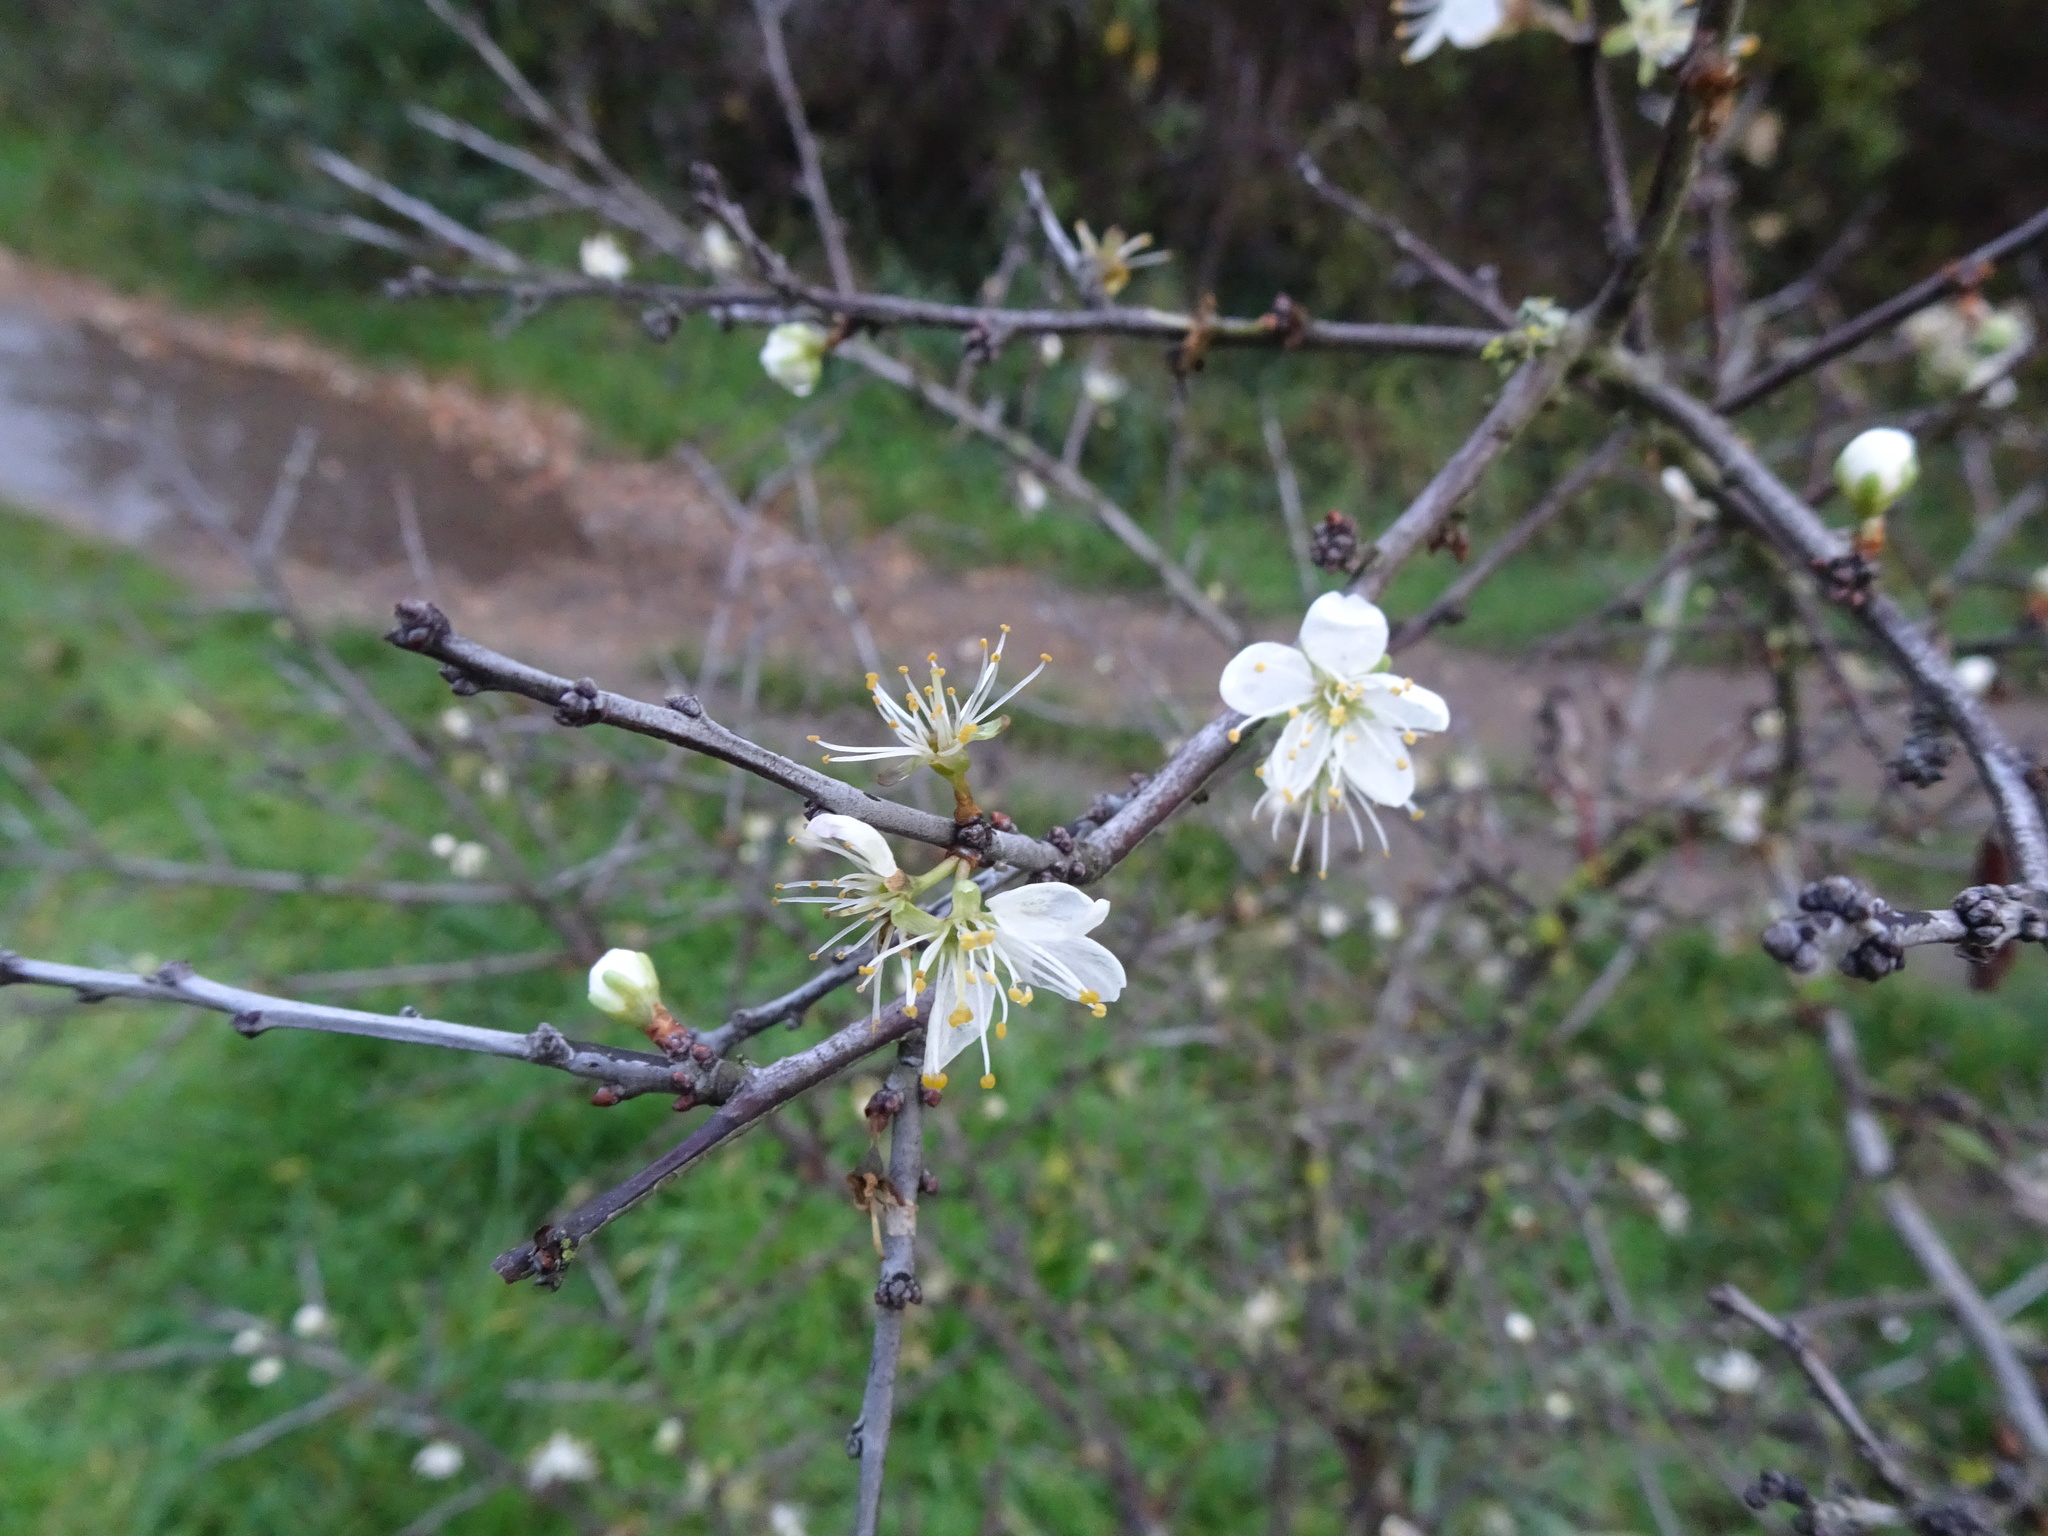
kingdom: Plantae
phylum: Tracheophyta
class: Magnoliopsida
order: Rosales
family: Rosaceae
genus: Prunus
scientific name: Prunus spinosa
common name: Blackthorn
